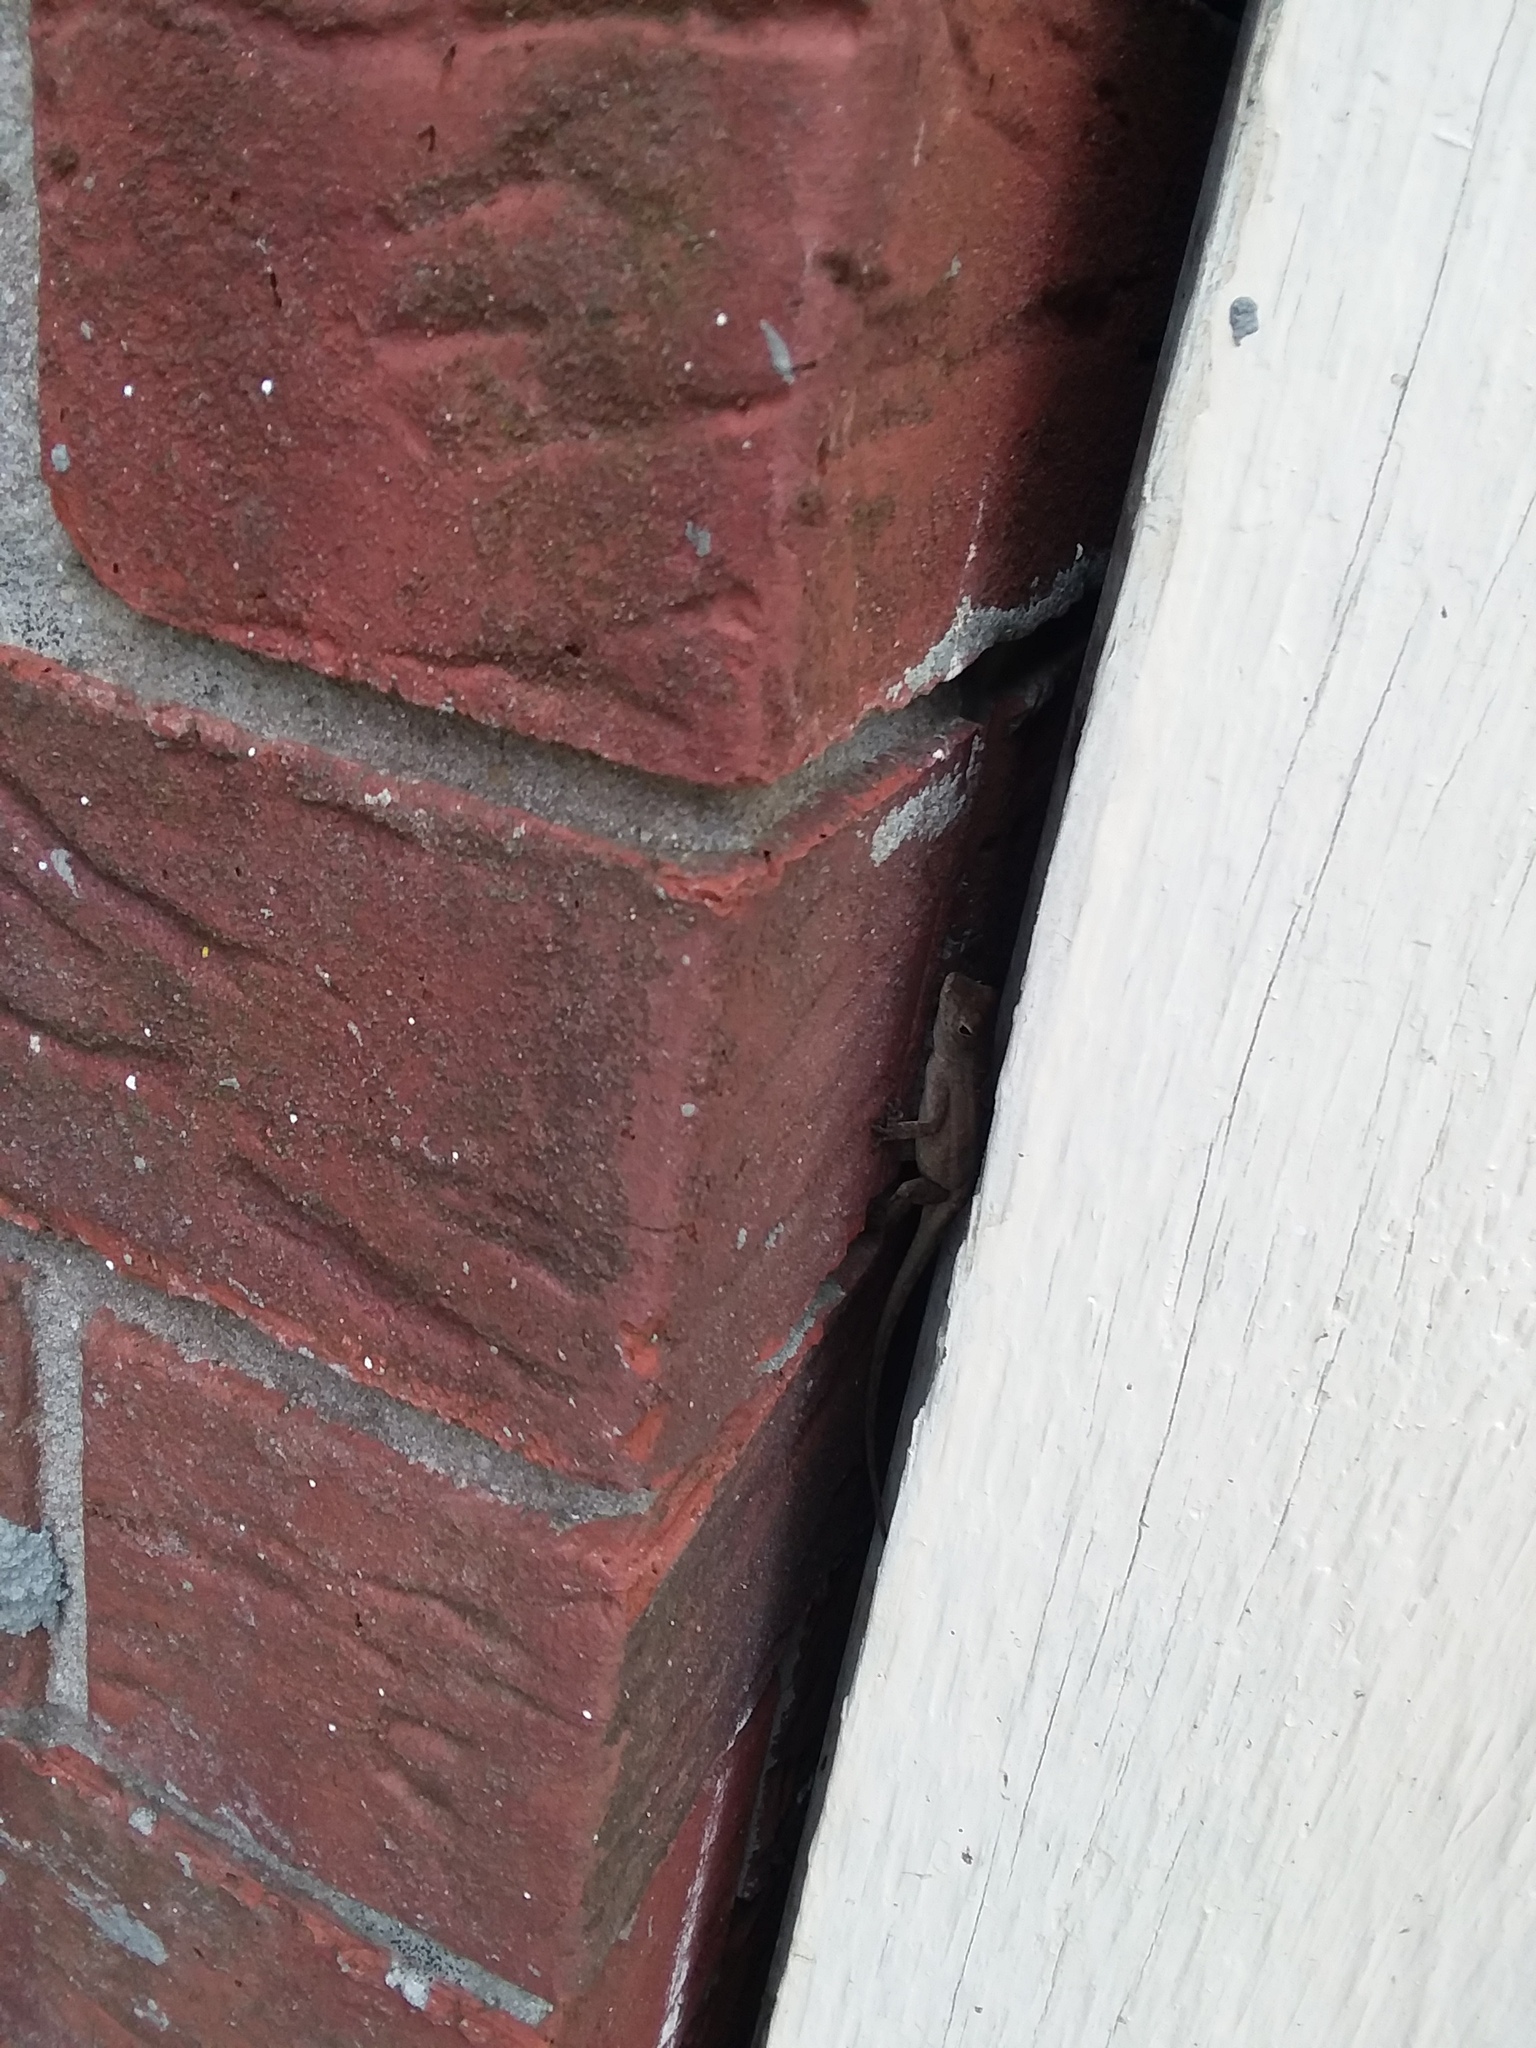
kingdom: Animalia
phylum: Chordata
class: Squamata
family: Dactyloidae
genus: Anolis
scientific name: Anolis sagrei
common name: Brown anole
